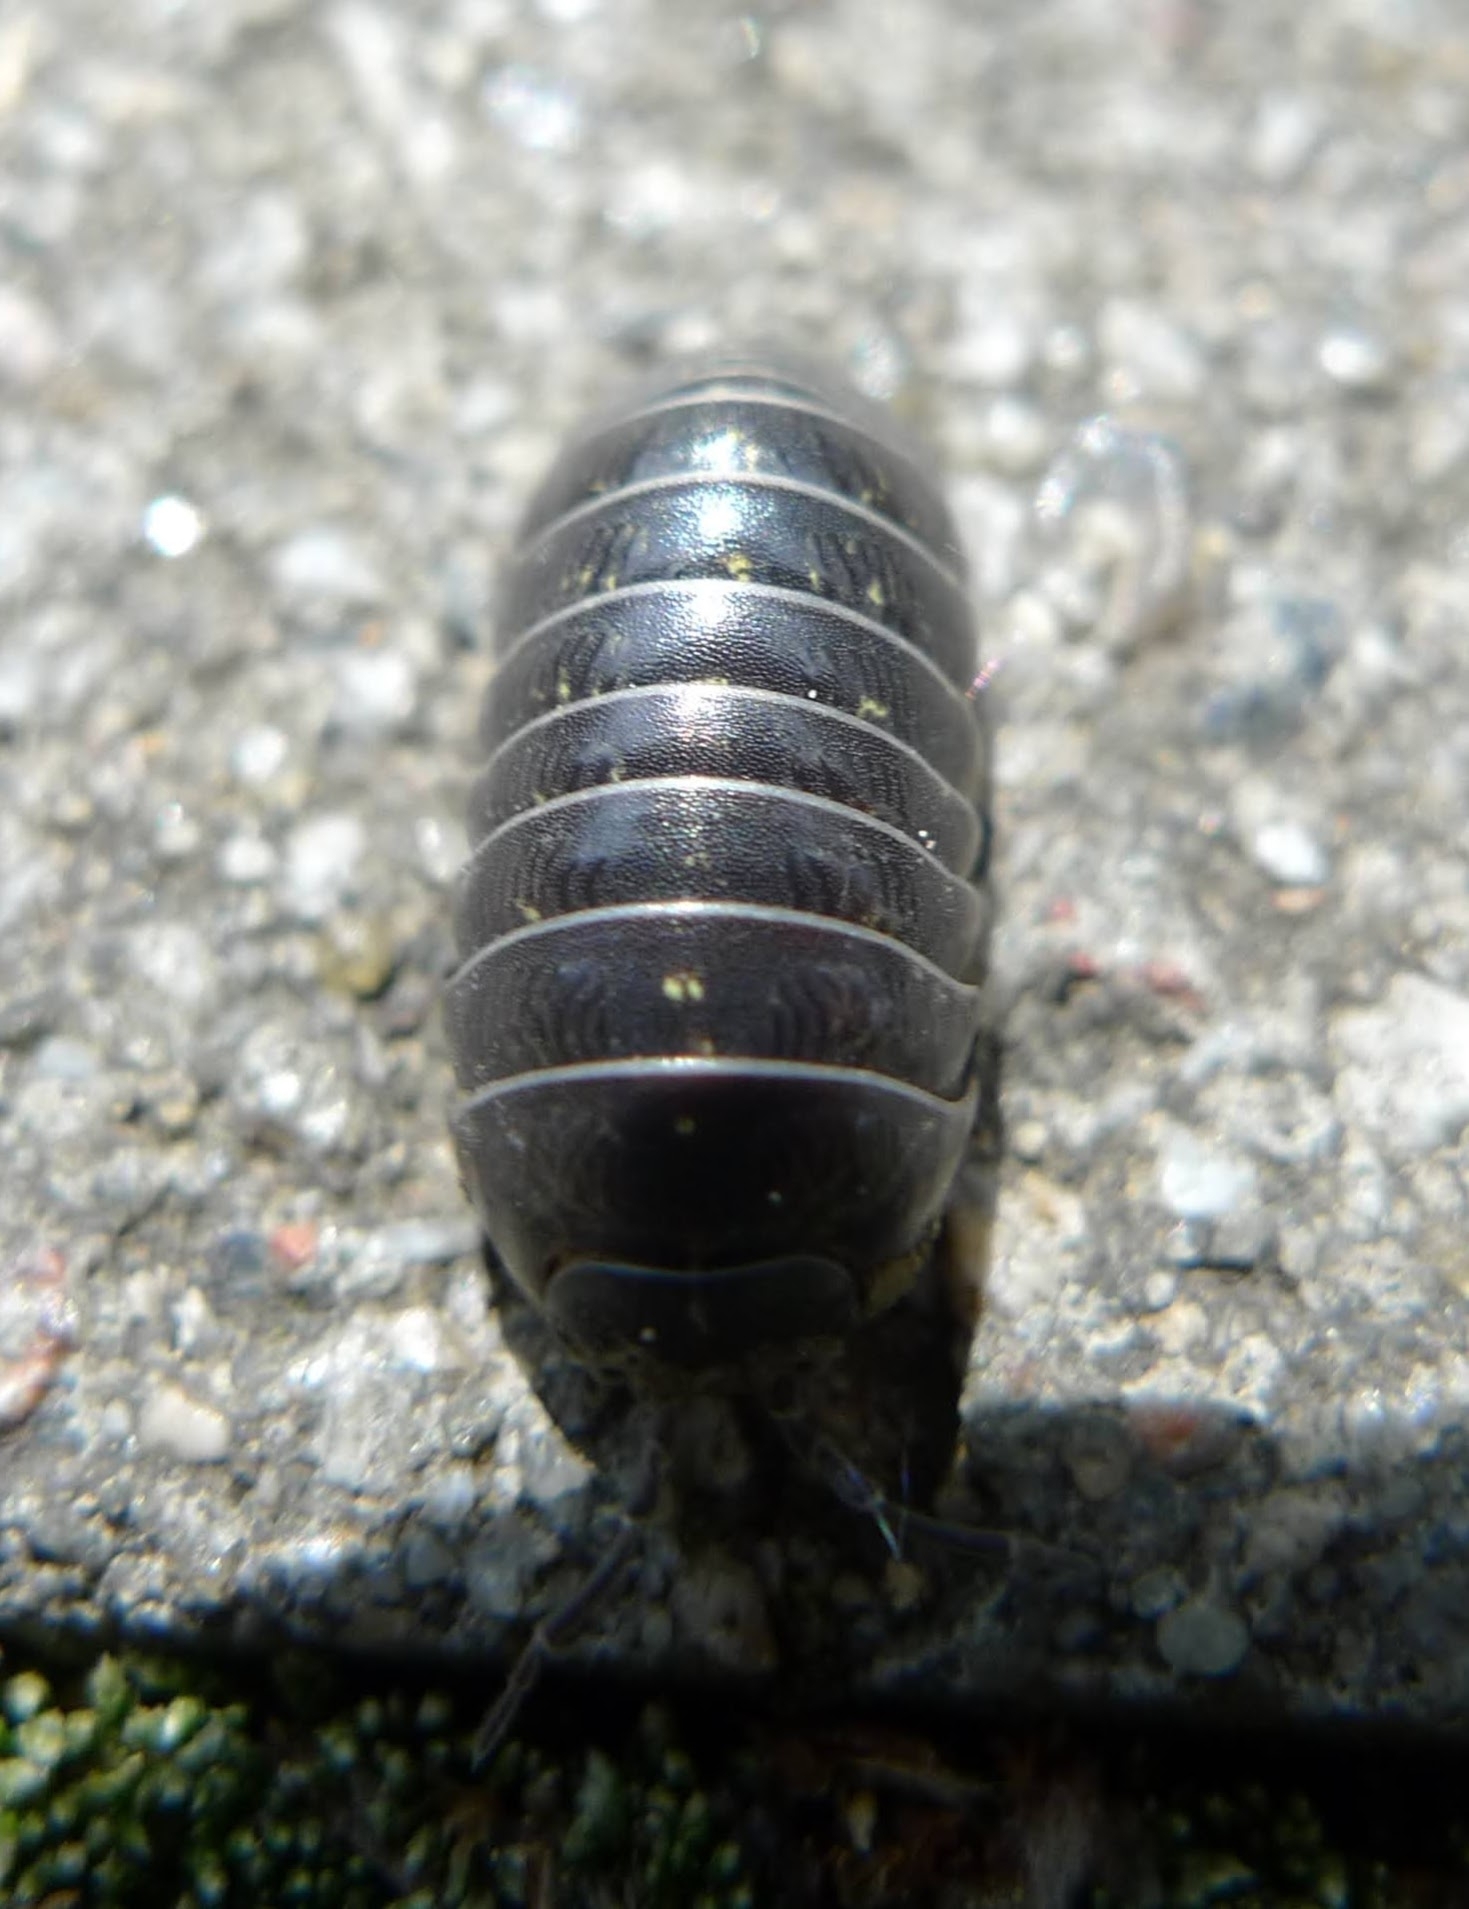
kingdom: Animalia
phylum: Arthropoda
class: Malacostraca
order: Isopoda
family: Armadillidiidae
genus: Armadillidium
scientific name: Armadillidium vulgare
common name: Common pill woodlouse
